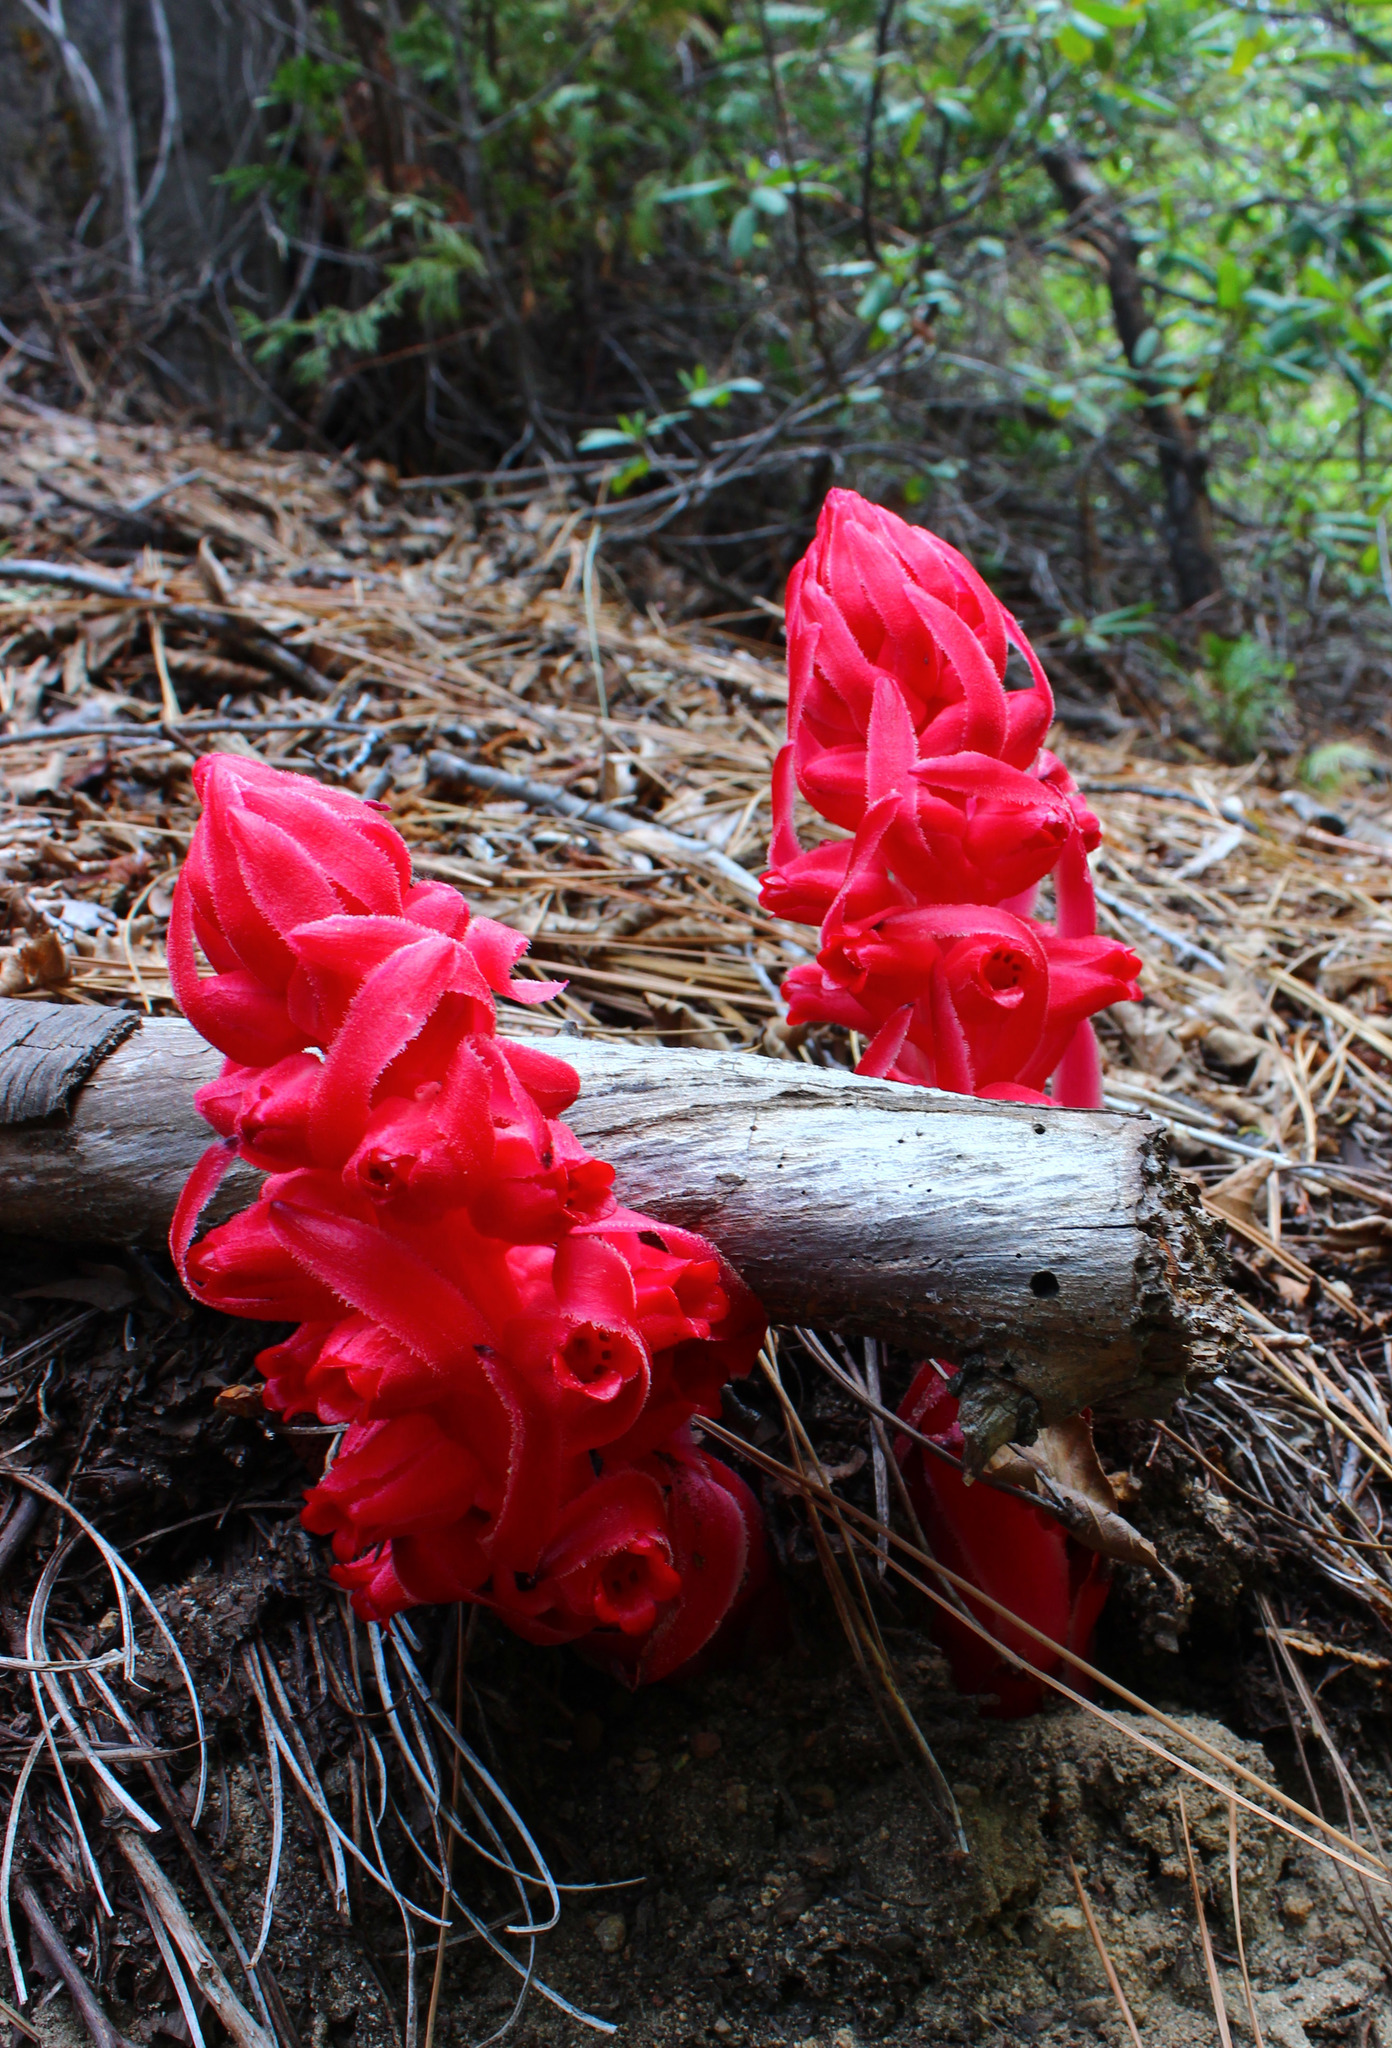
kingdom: Plantae
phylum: Tracheophyta
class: Magnoliopsida
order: Ericales
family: Ericaceae
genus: Sarcodes
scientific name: Sarcodes sanguinea
